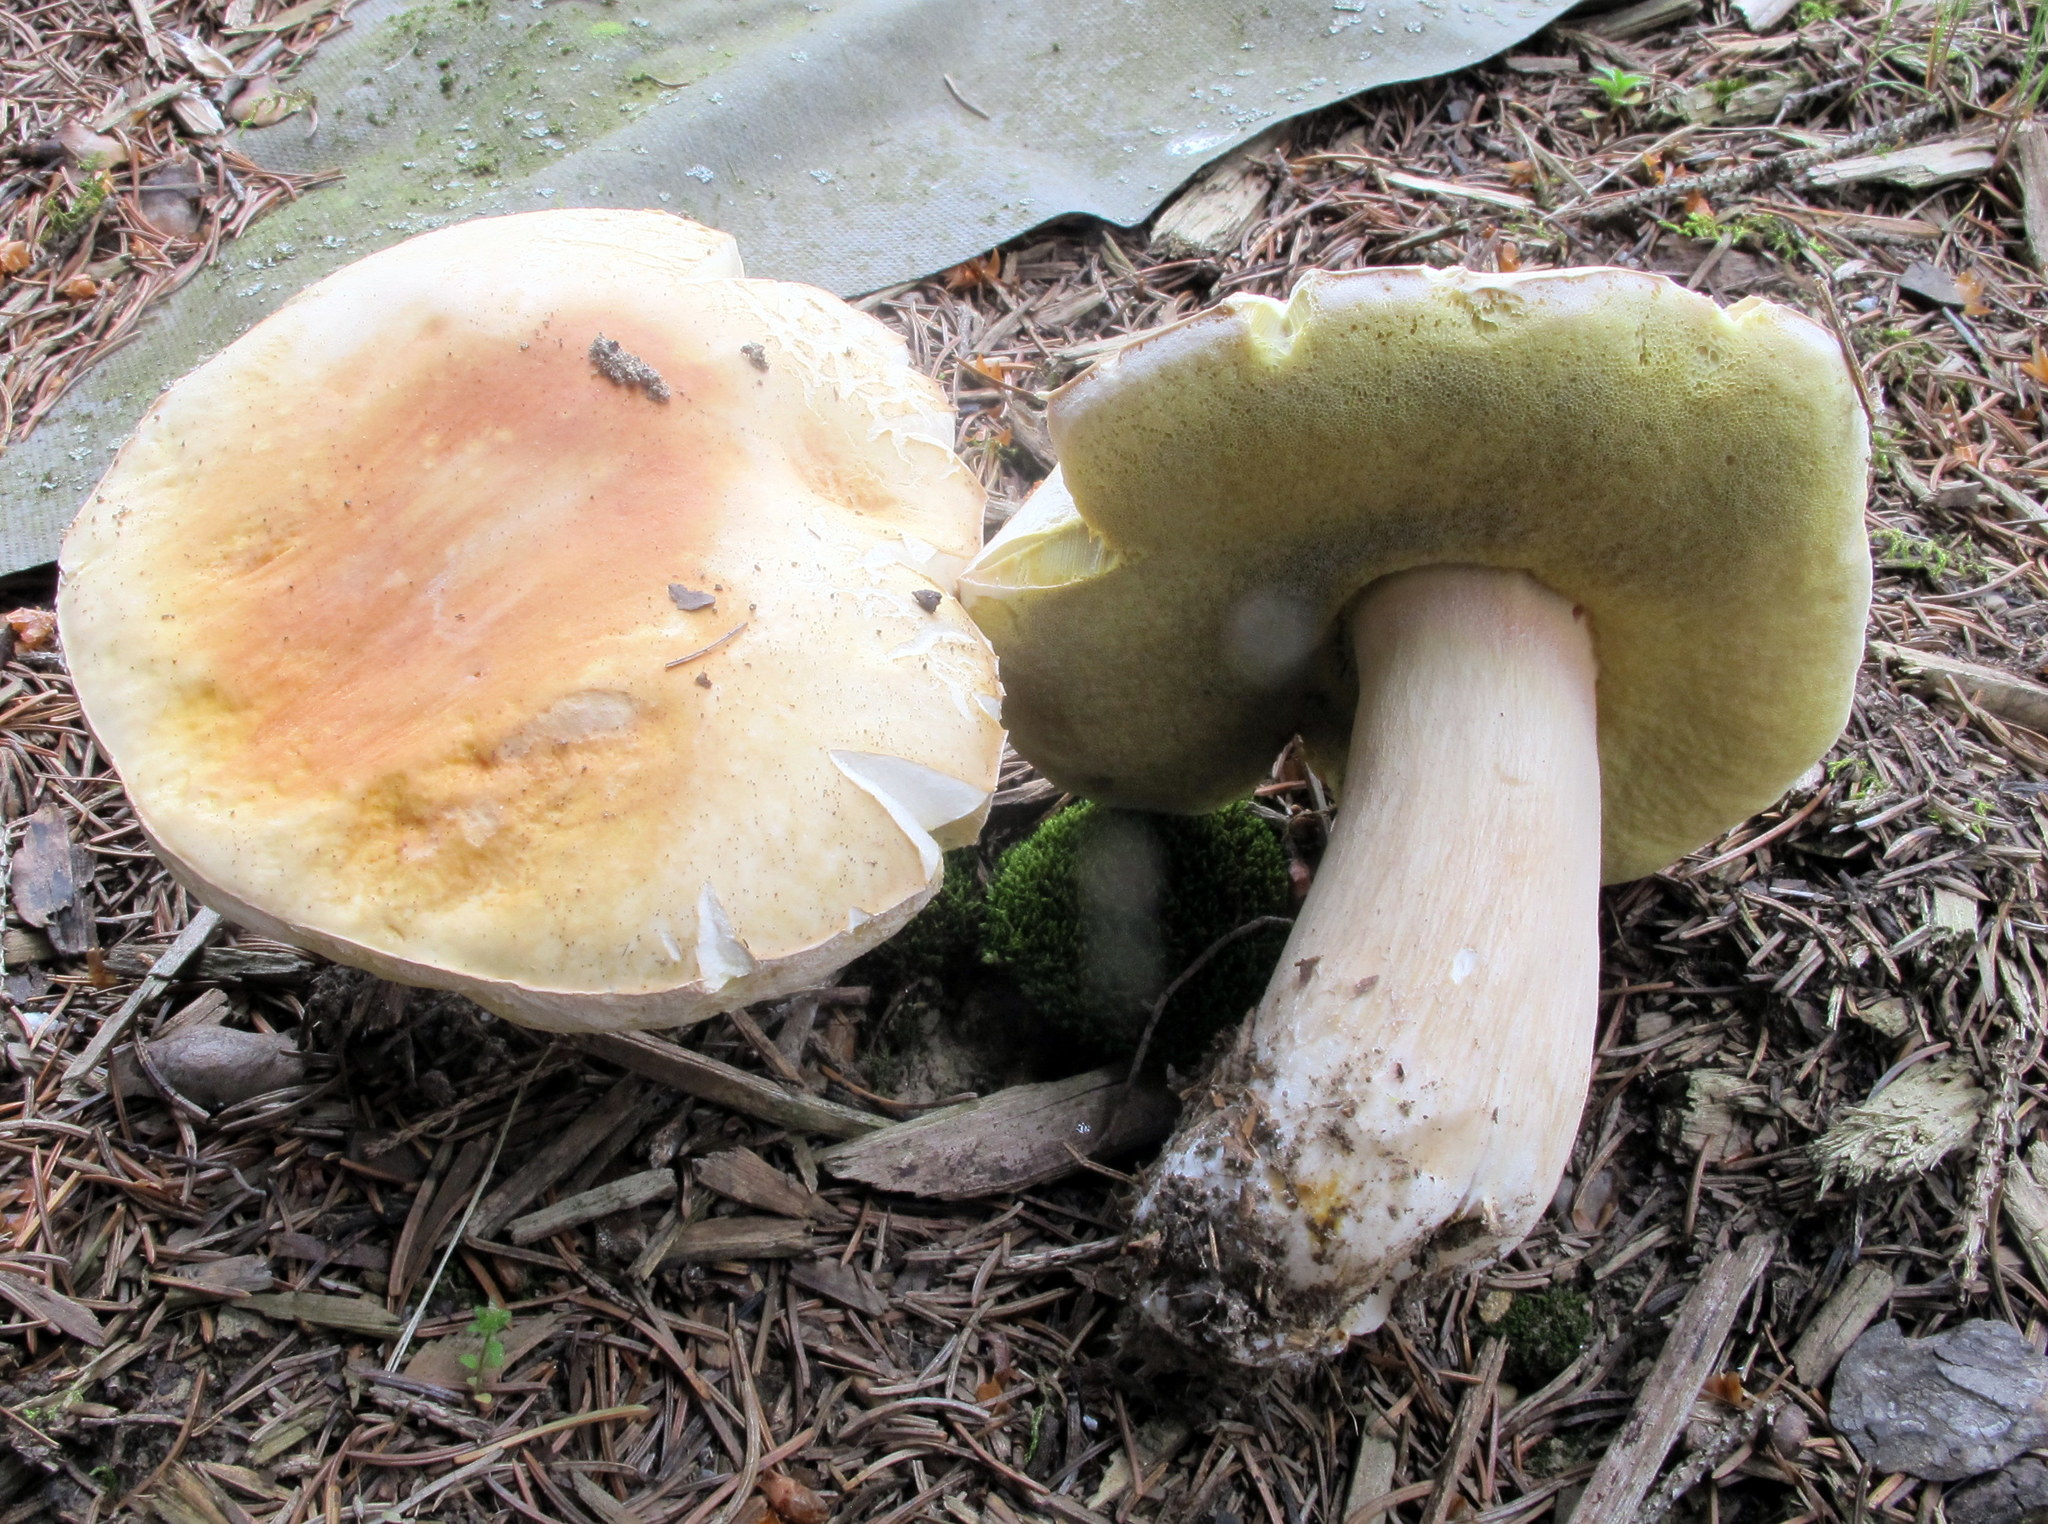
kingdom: Fungi
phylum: Basidiomycota
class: Agaricomycetes
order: Boletales
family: Boletaceae
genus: Boletus
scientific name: Boletus edulis
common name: Cep
